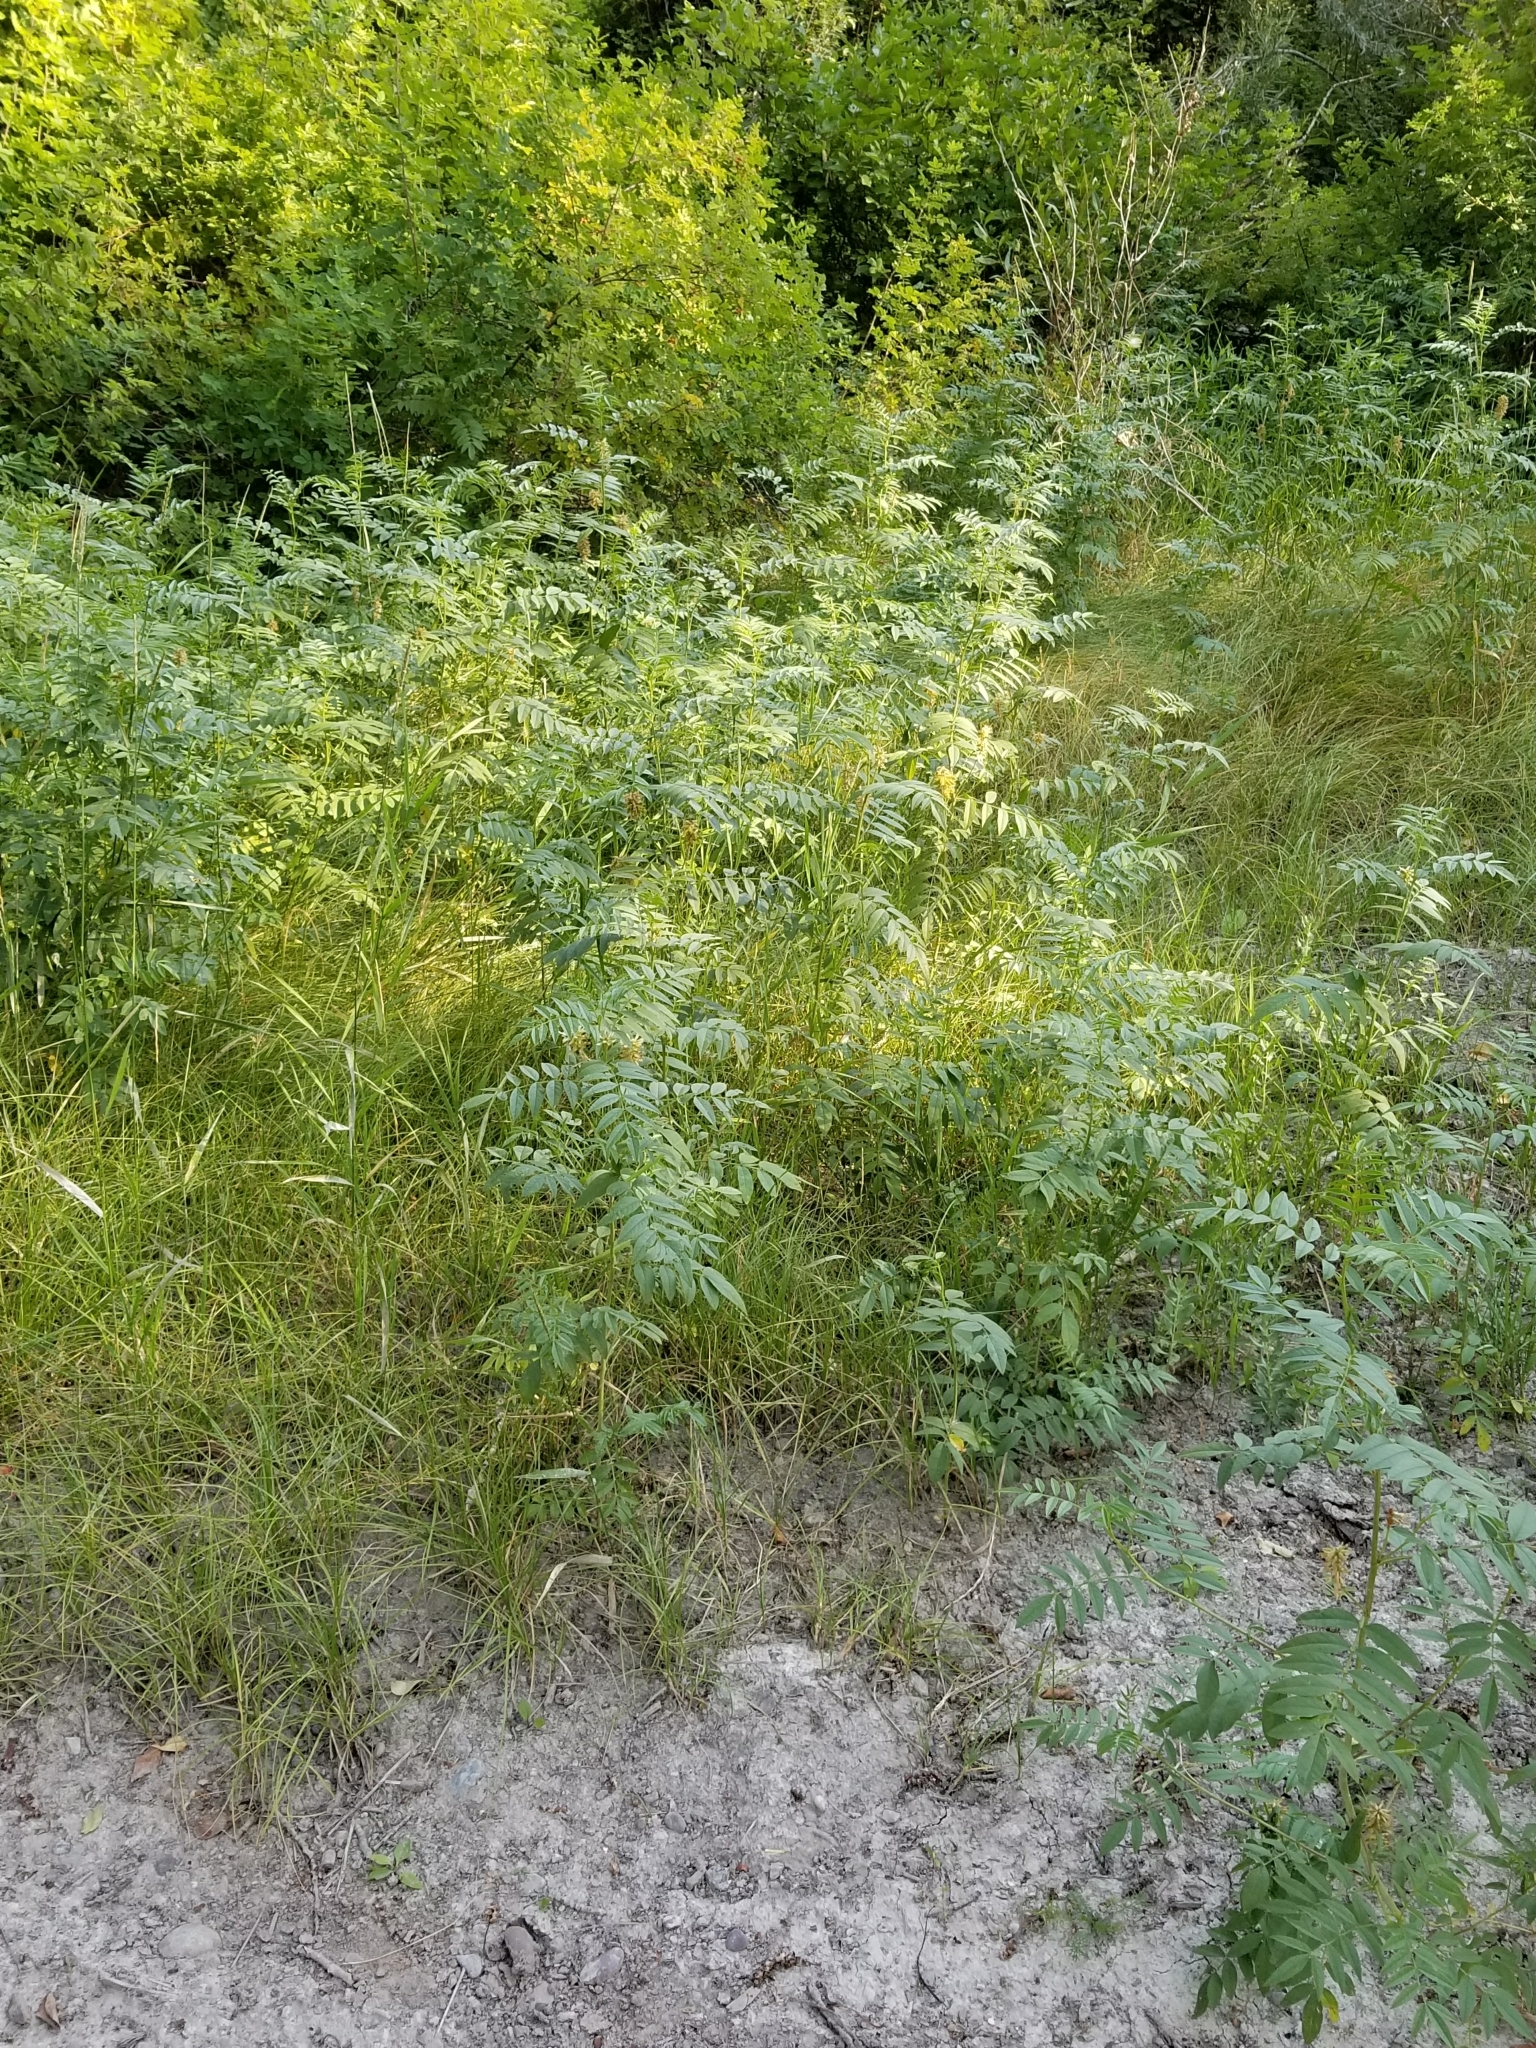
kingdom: Plantae
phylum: Tracheophyta
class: Magnoliopsida
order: Fabales
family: Fabaceae
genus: Glycyrrhiza
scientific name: Glycyrrhiza lepidota
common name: American liquorice
